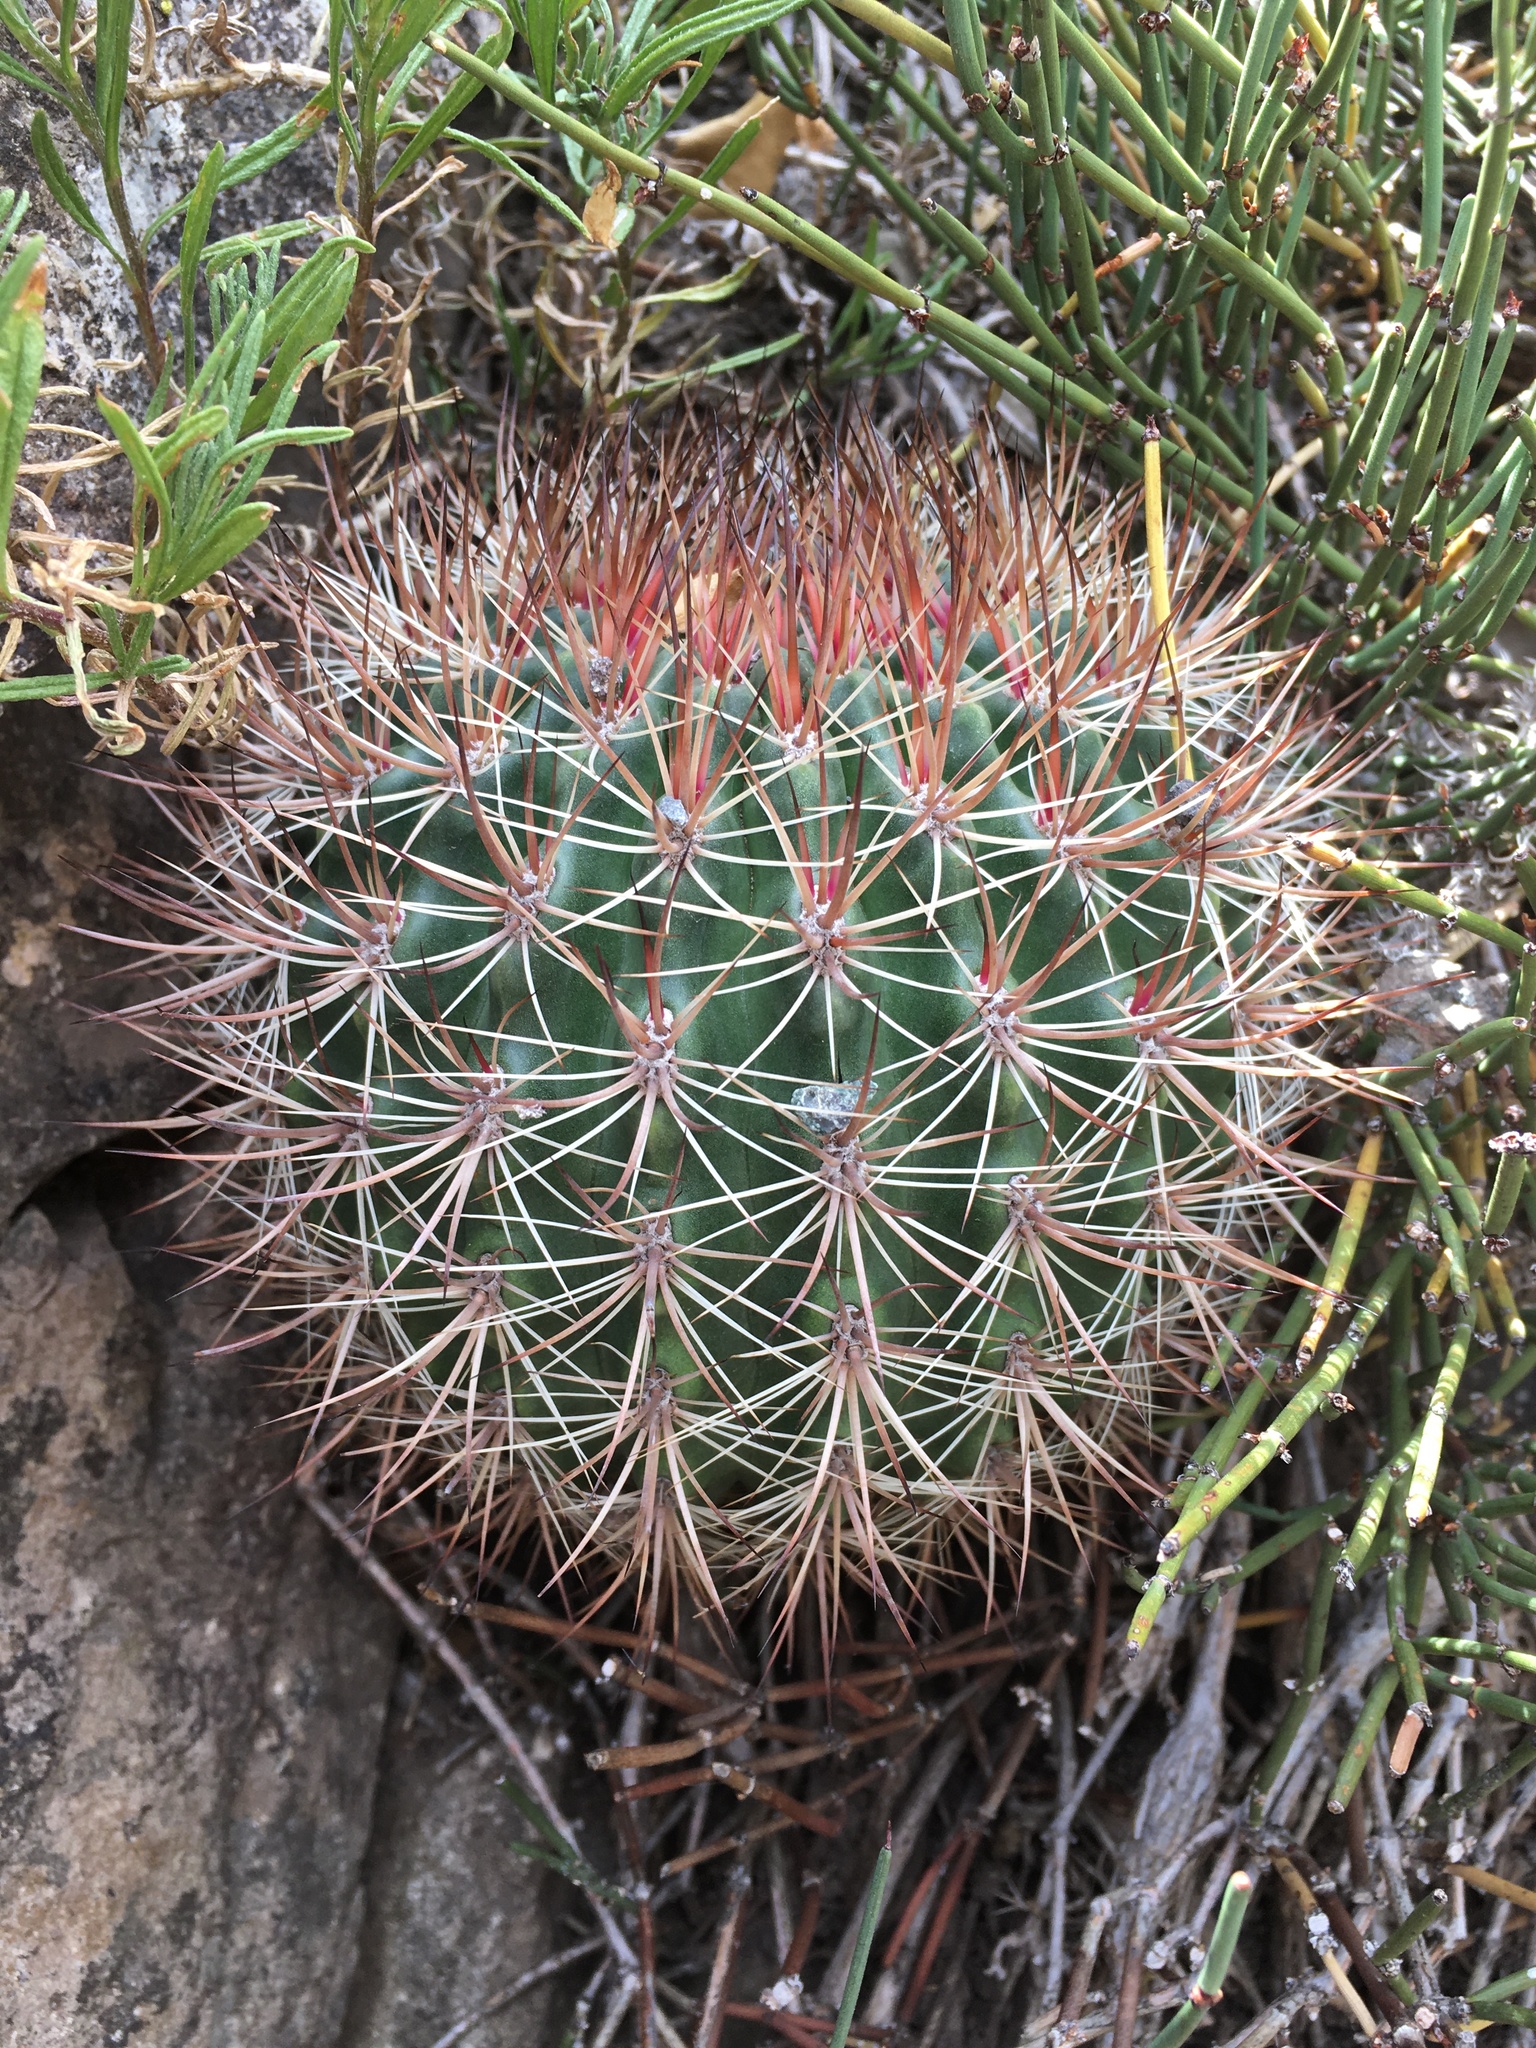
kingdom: Plantae
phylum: Tracheophyta
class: Magnoliopsida
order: Caryophyllales
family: Cactaceae
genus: Eriosyce
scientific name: Eriosyce curvispina
